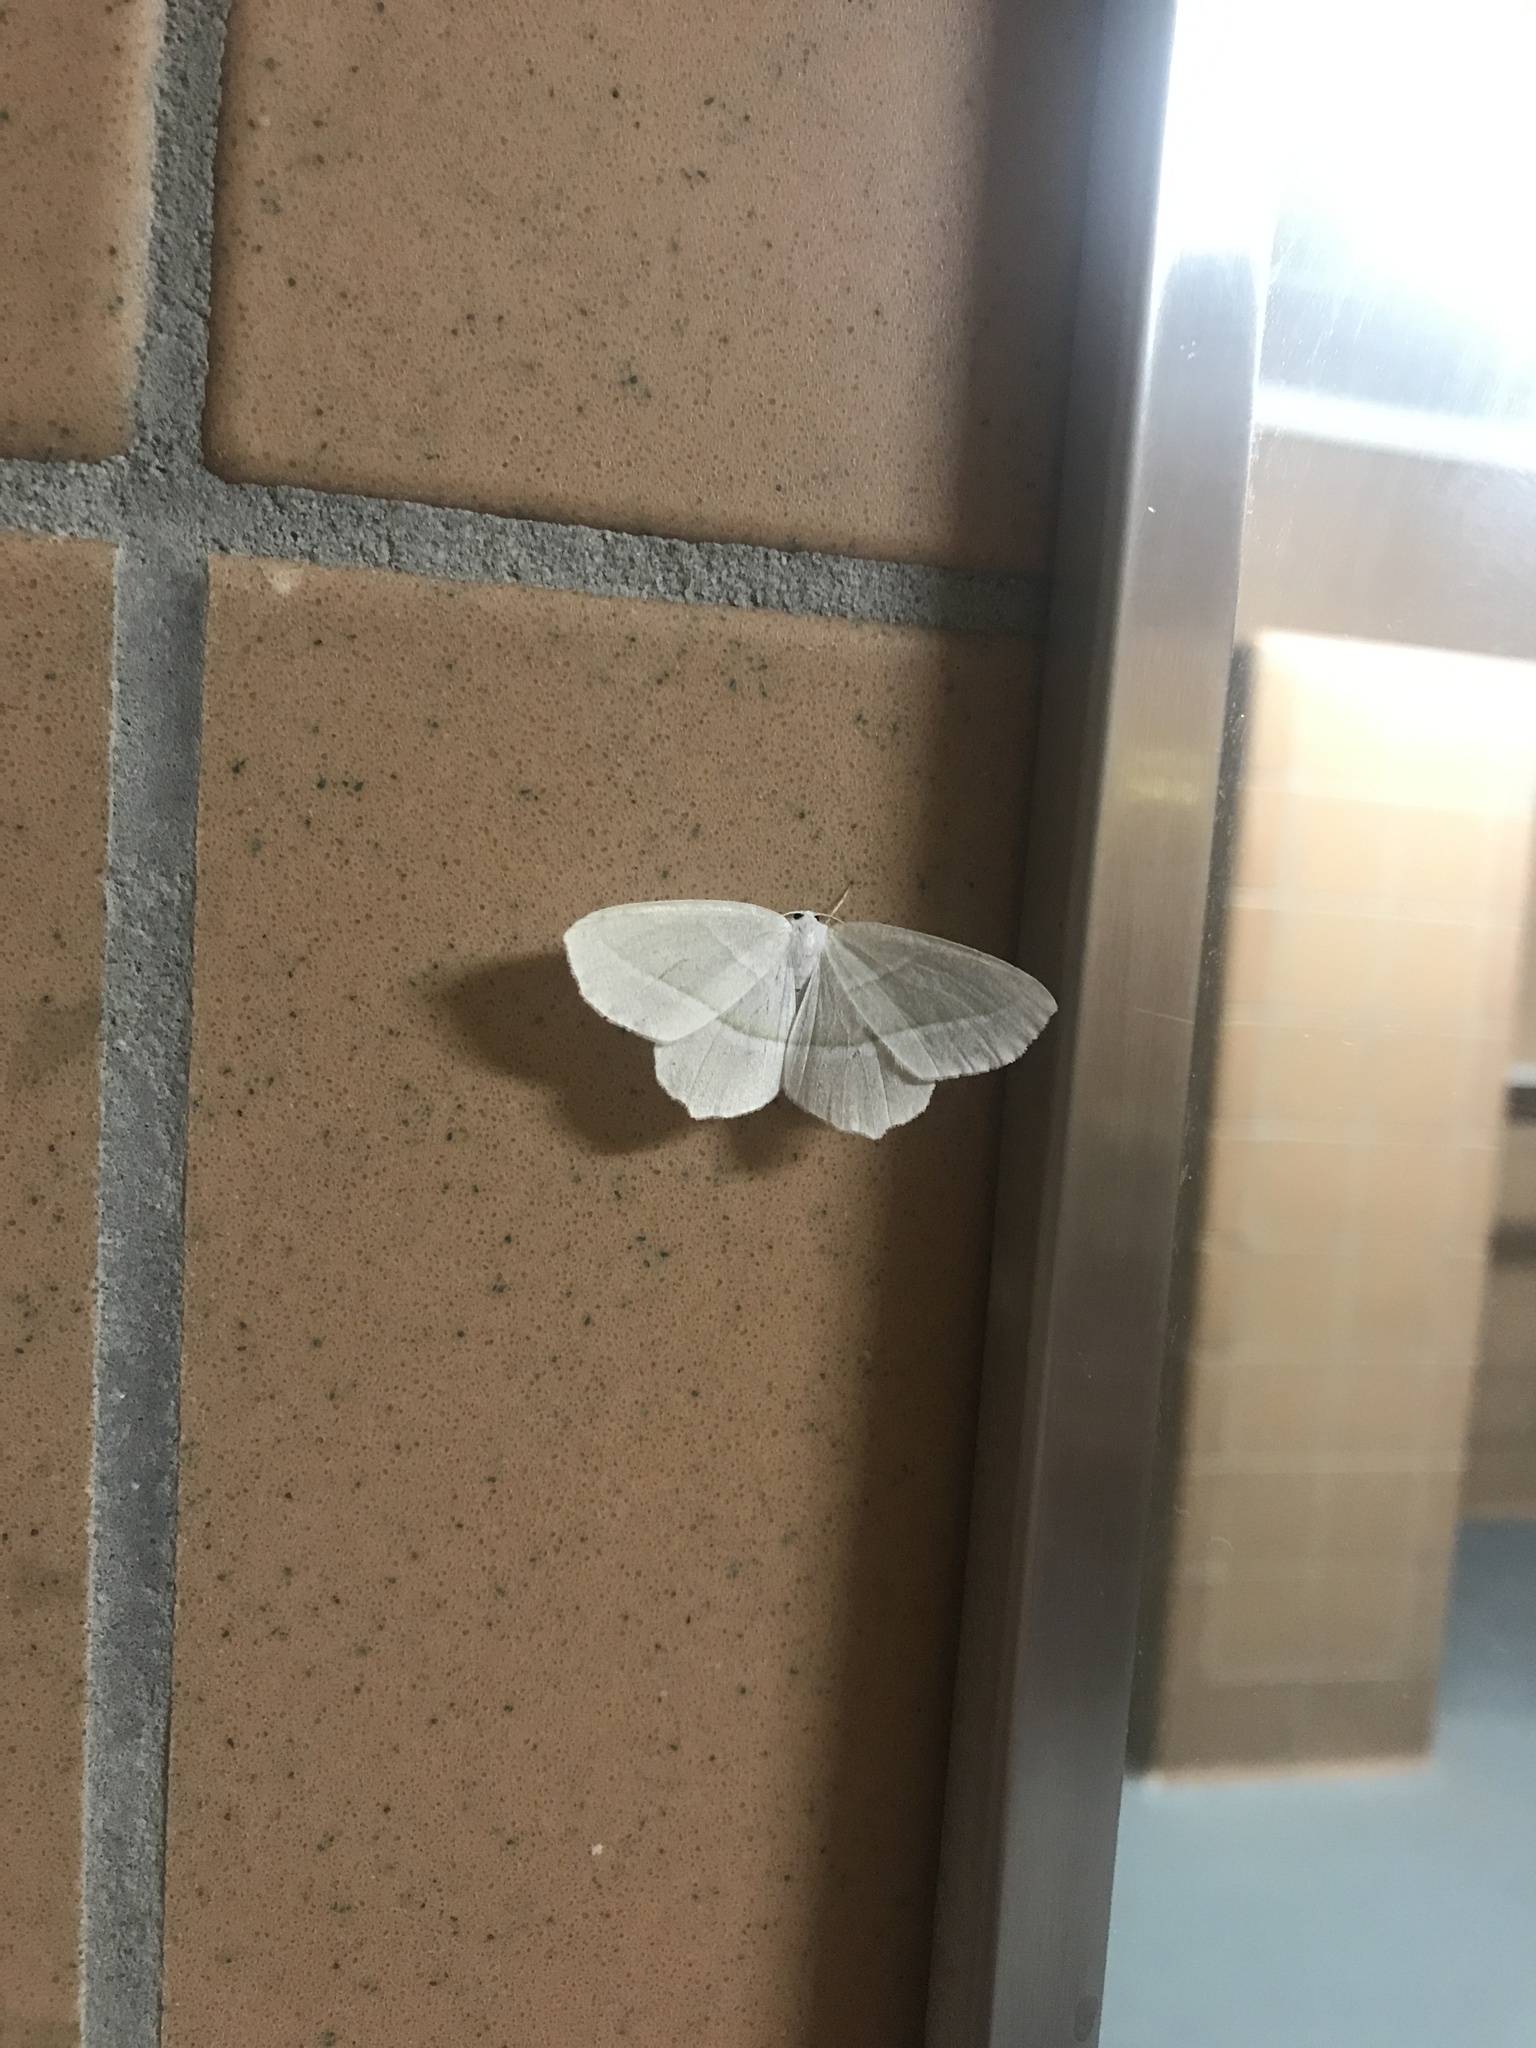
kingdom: Animalia
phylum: Arthropoda
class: Insecta
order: Lepidoptera
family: Geometridae
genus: Campaea
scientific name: Campaea perlata
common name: Fringed looper
